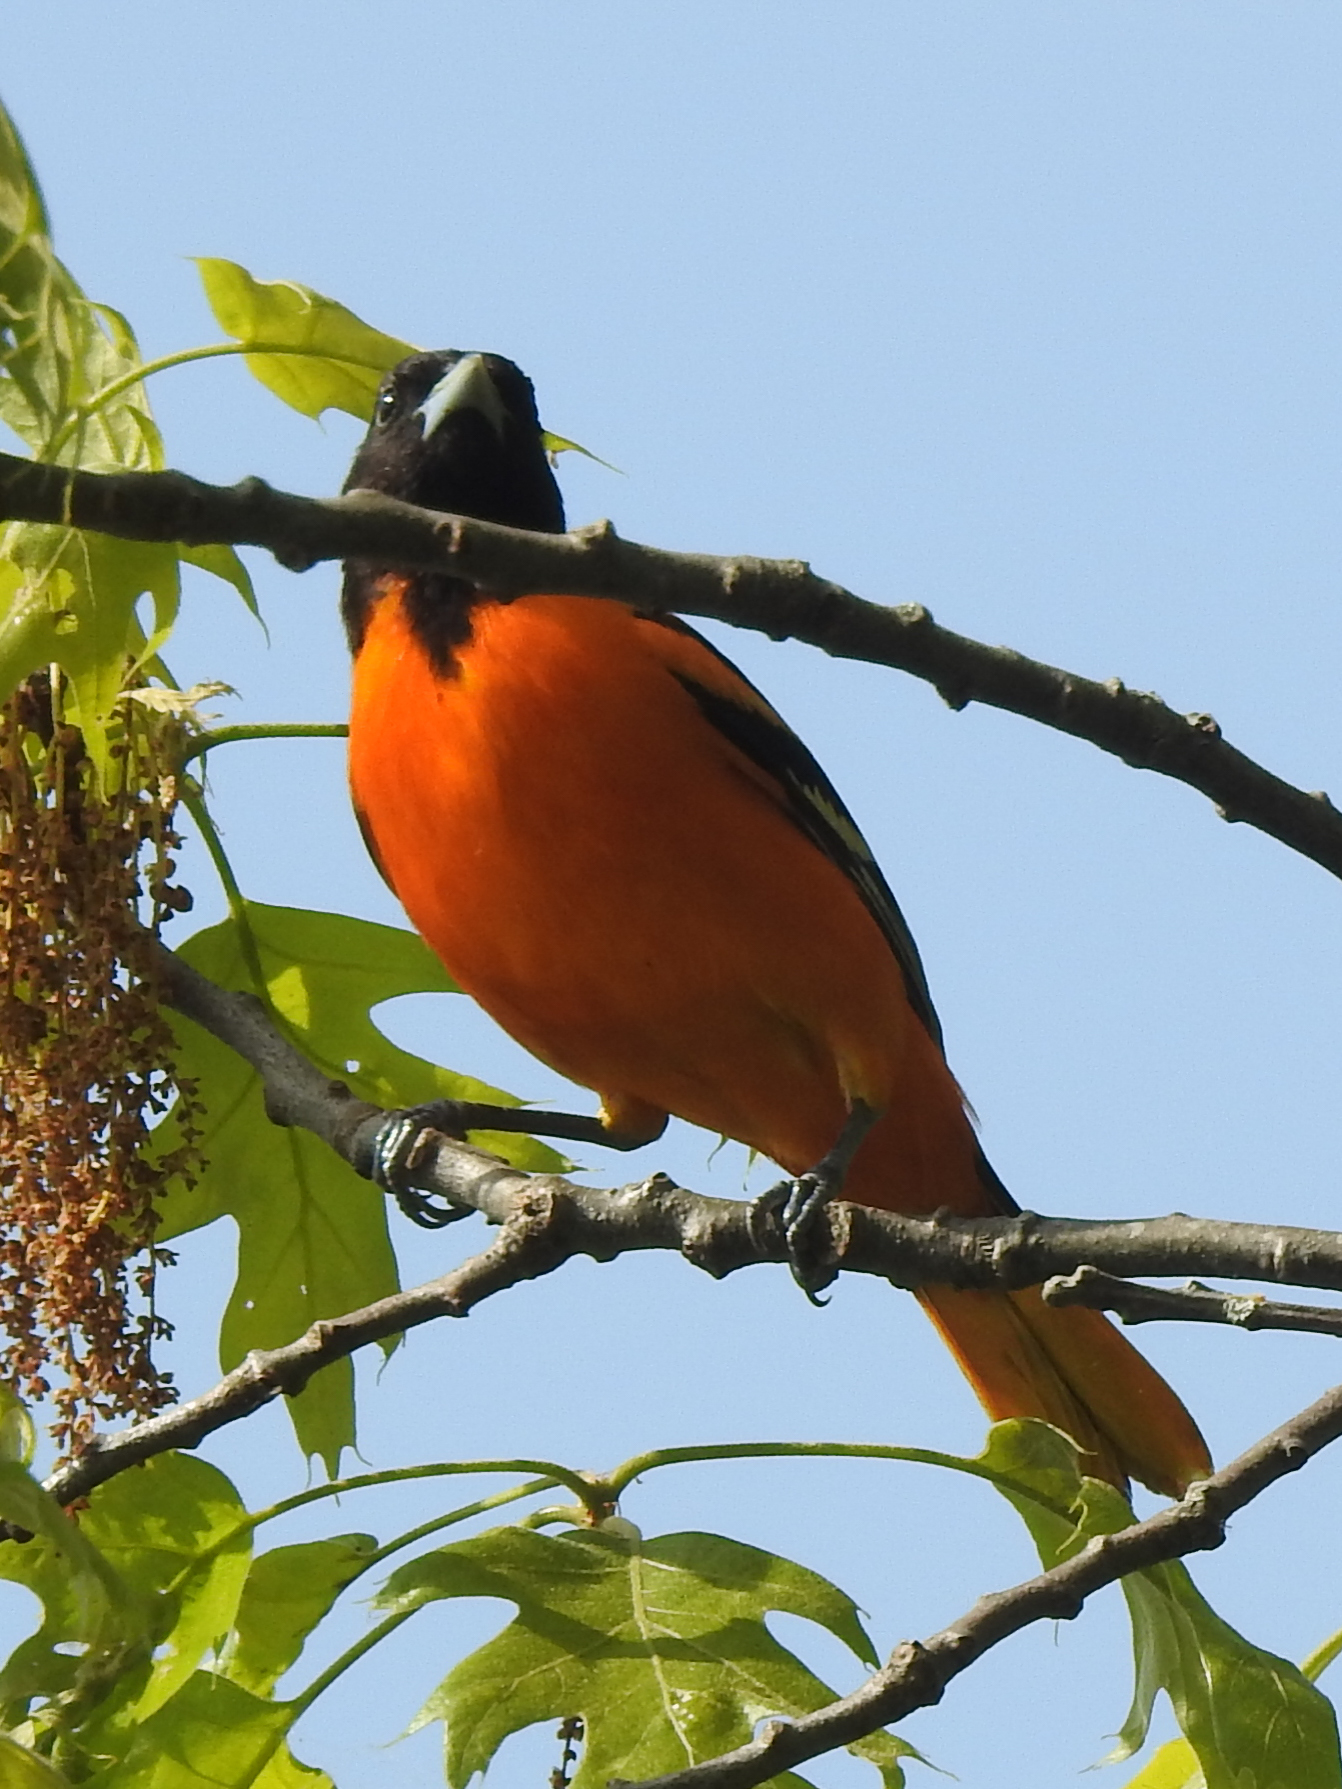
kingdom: Animalia
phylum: Chordata
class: Aves
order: Passeriformes
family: Icteridae
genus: Icterus
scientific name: Icterus galbula
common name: Baltimore oriole
